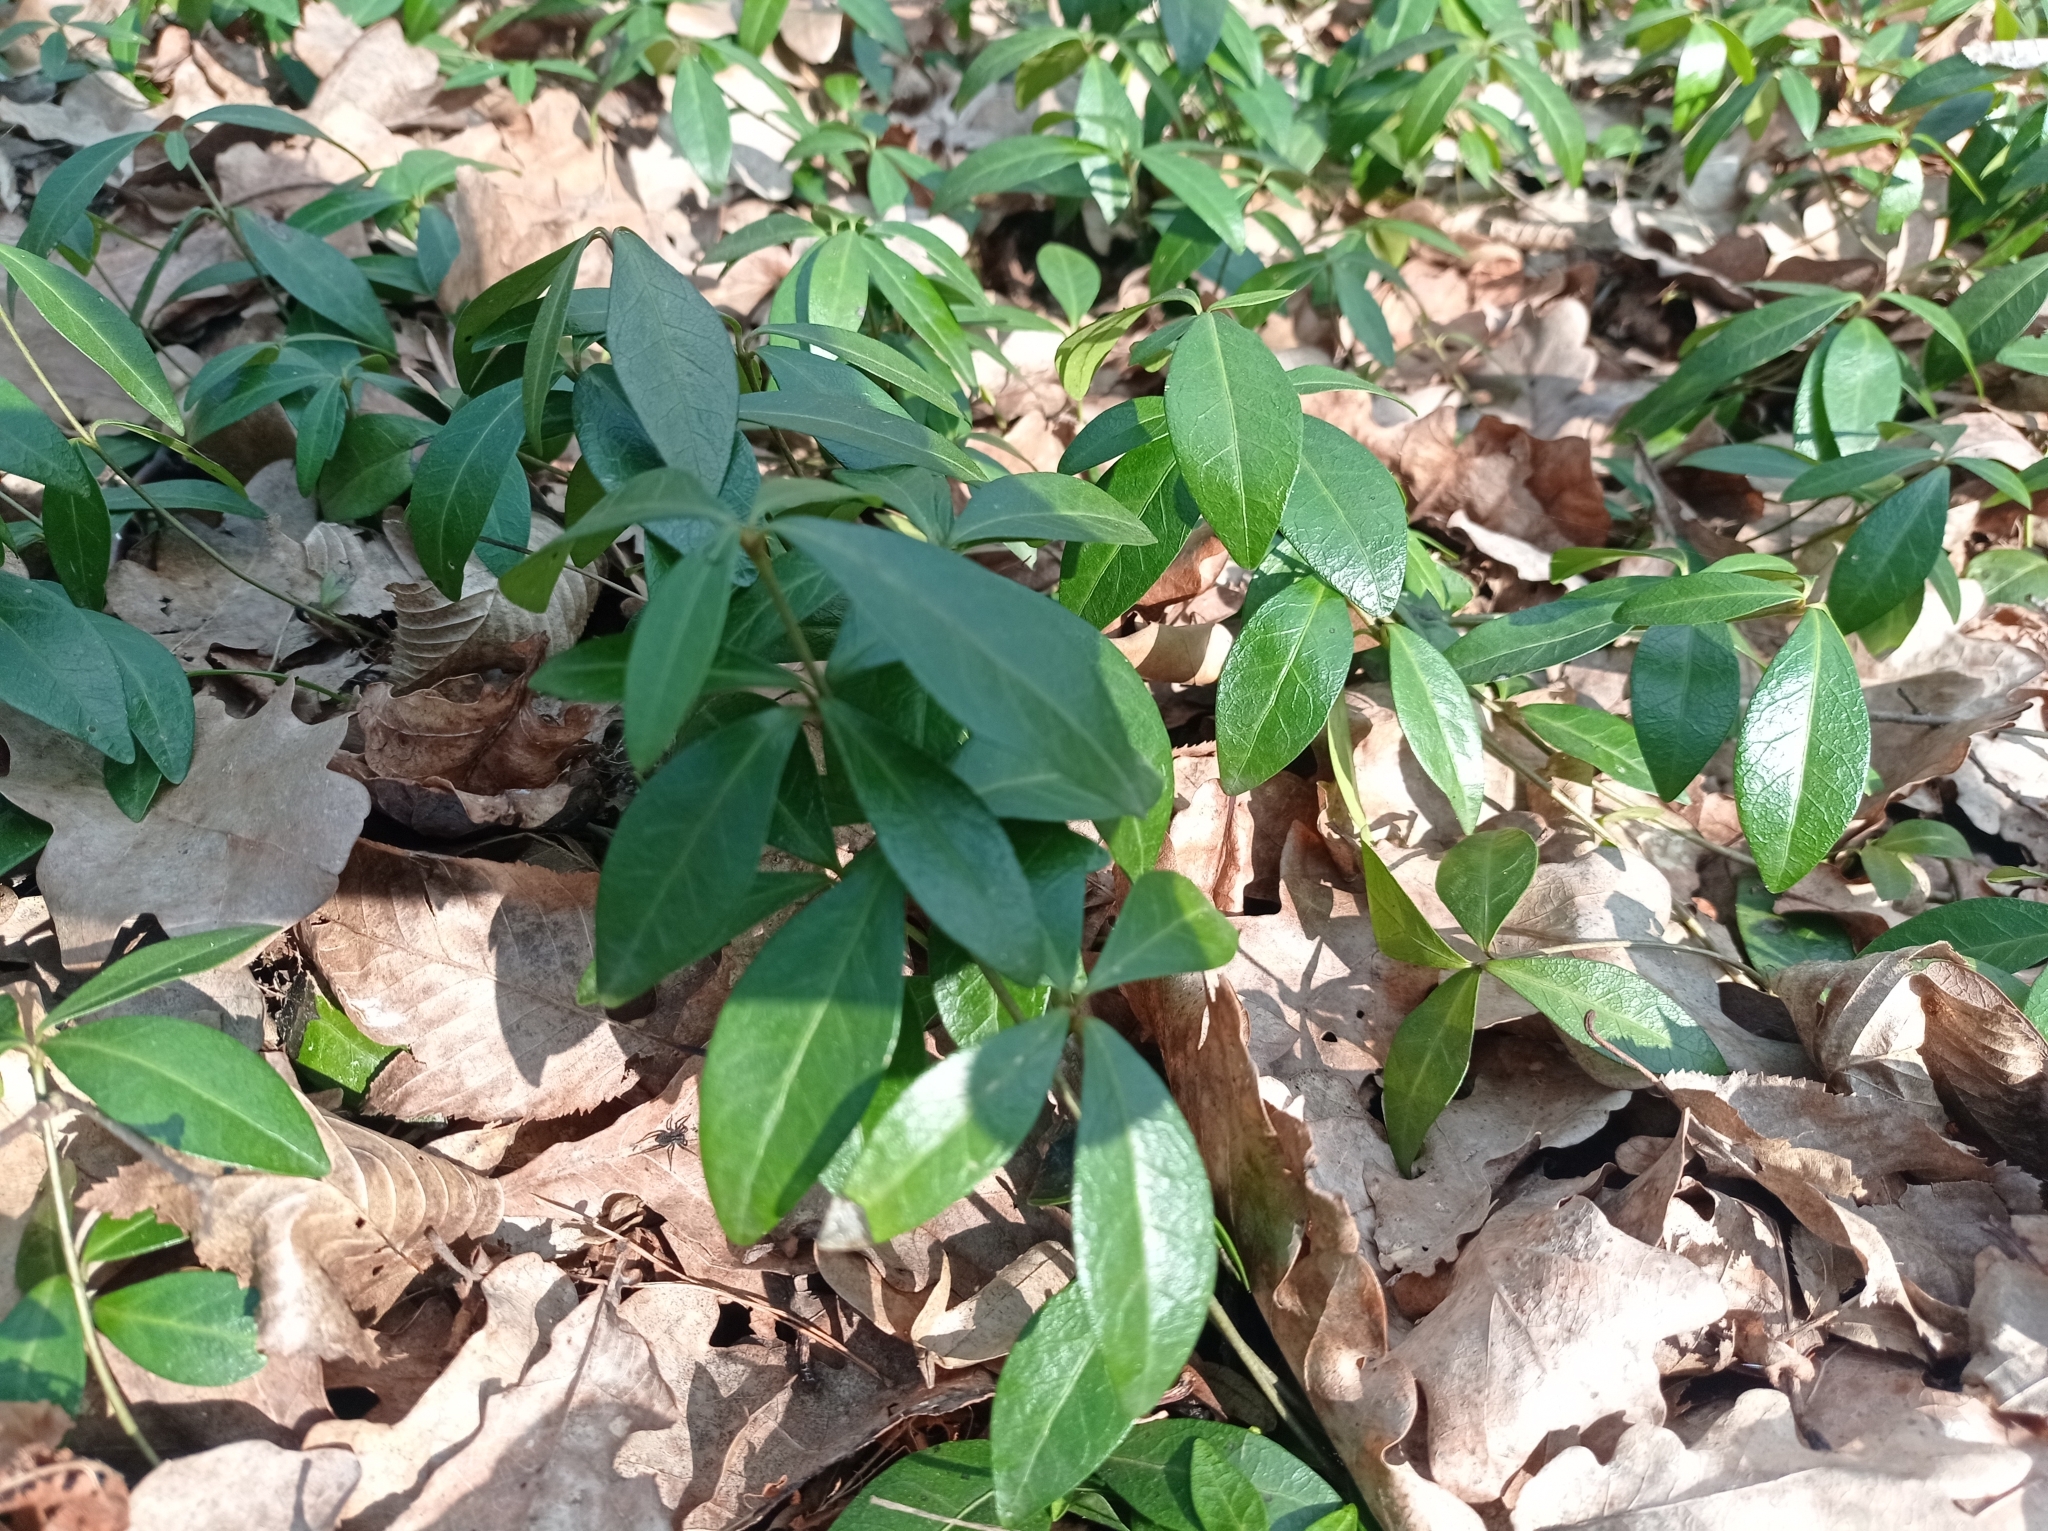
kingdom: Plantae
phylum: Tracheophyta
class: Magnoliopsida
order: Gentianales
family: Apocynaceae
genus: Vinca
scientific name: Vinca minor
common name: Lesser periwinkle
